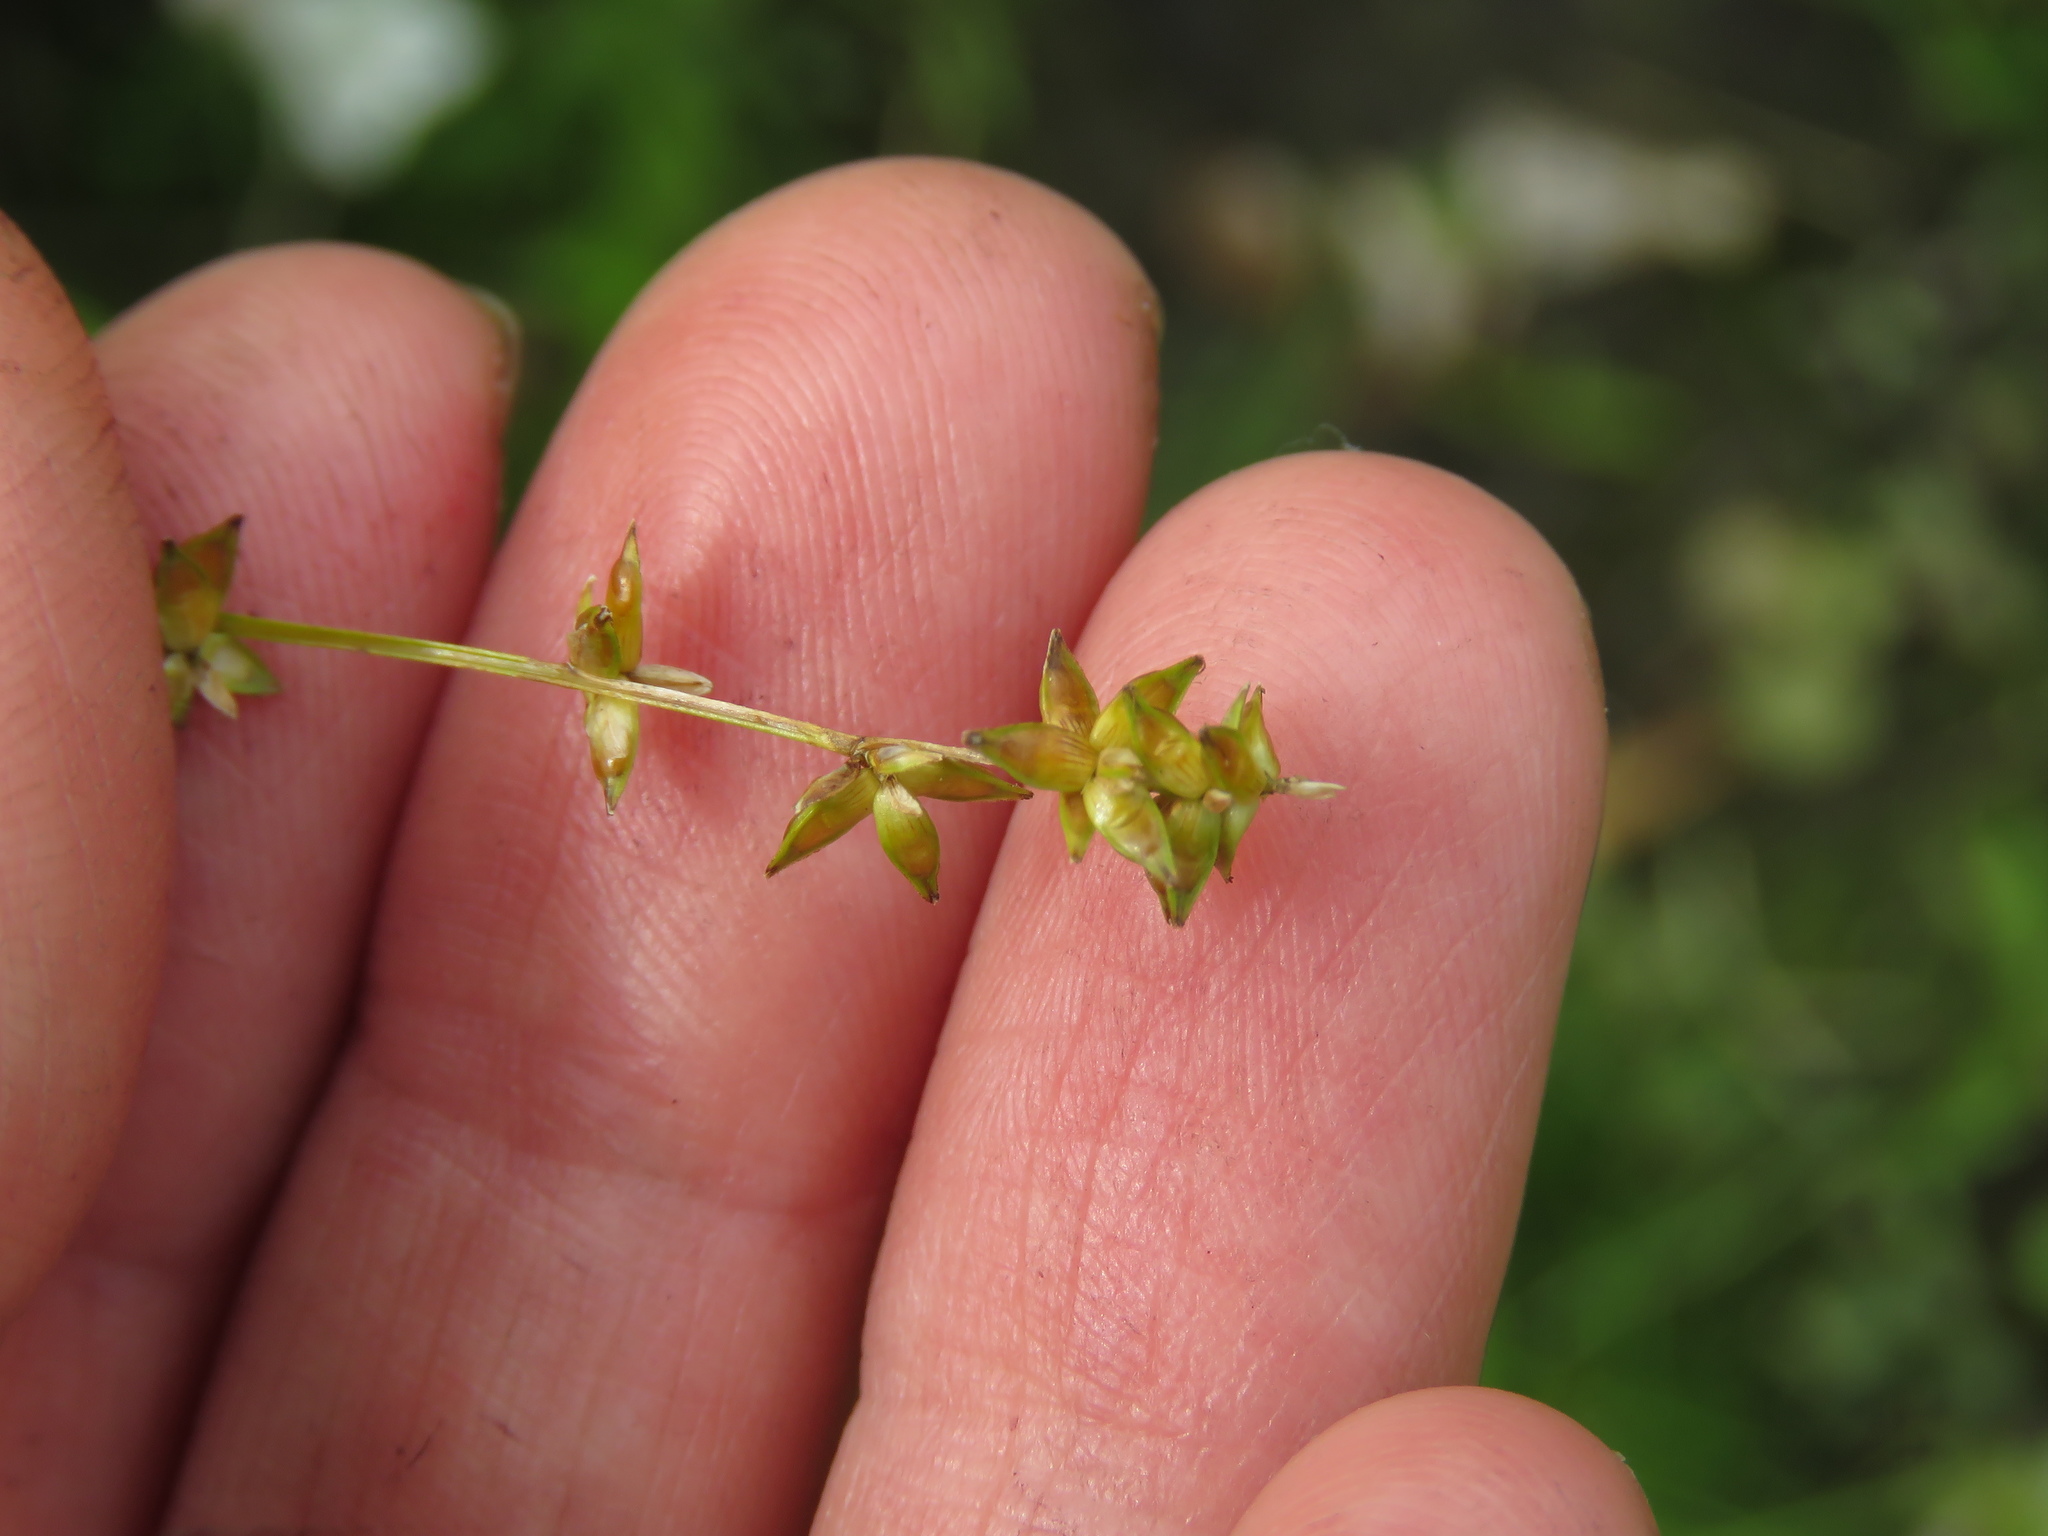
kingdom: Plantae
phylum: Tracheophyta
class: Liliopsida
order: Poales
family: Cyperaceae
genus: Carex
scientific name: Carex rosea
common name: Curly-styled wood sedge
